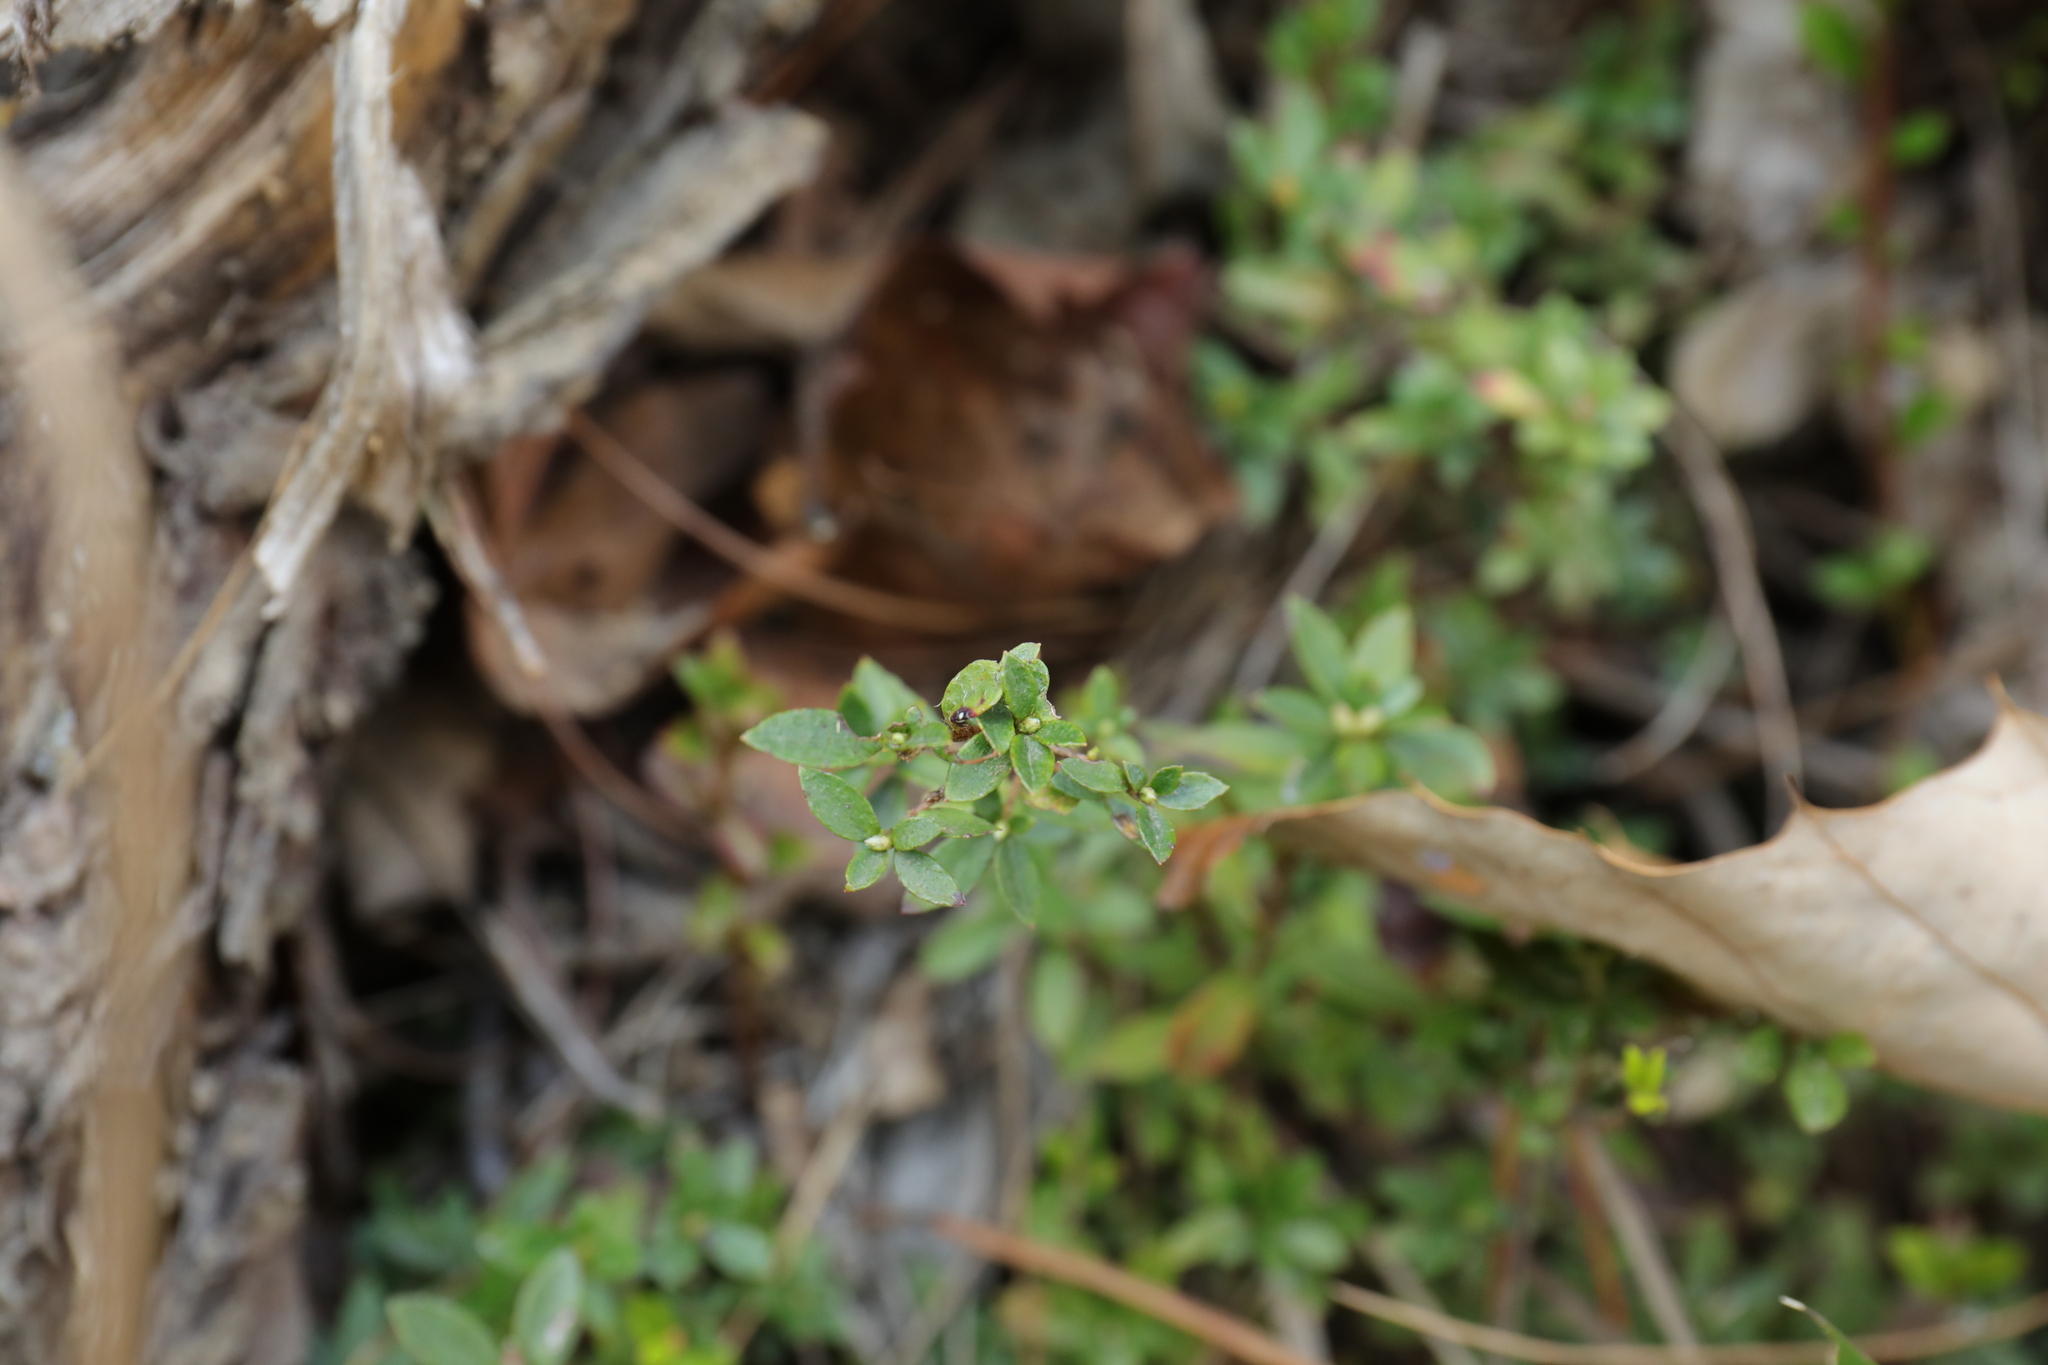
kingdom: Plantae
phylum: Tracheophyta
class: Magnoliopsida
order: Ericales
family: Ericaceae
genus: Rhododendron
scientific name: Rhododendron noriakianum
